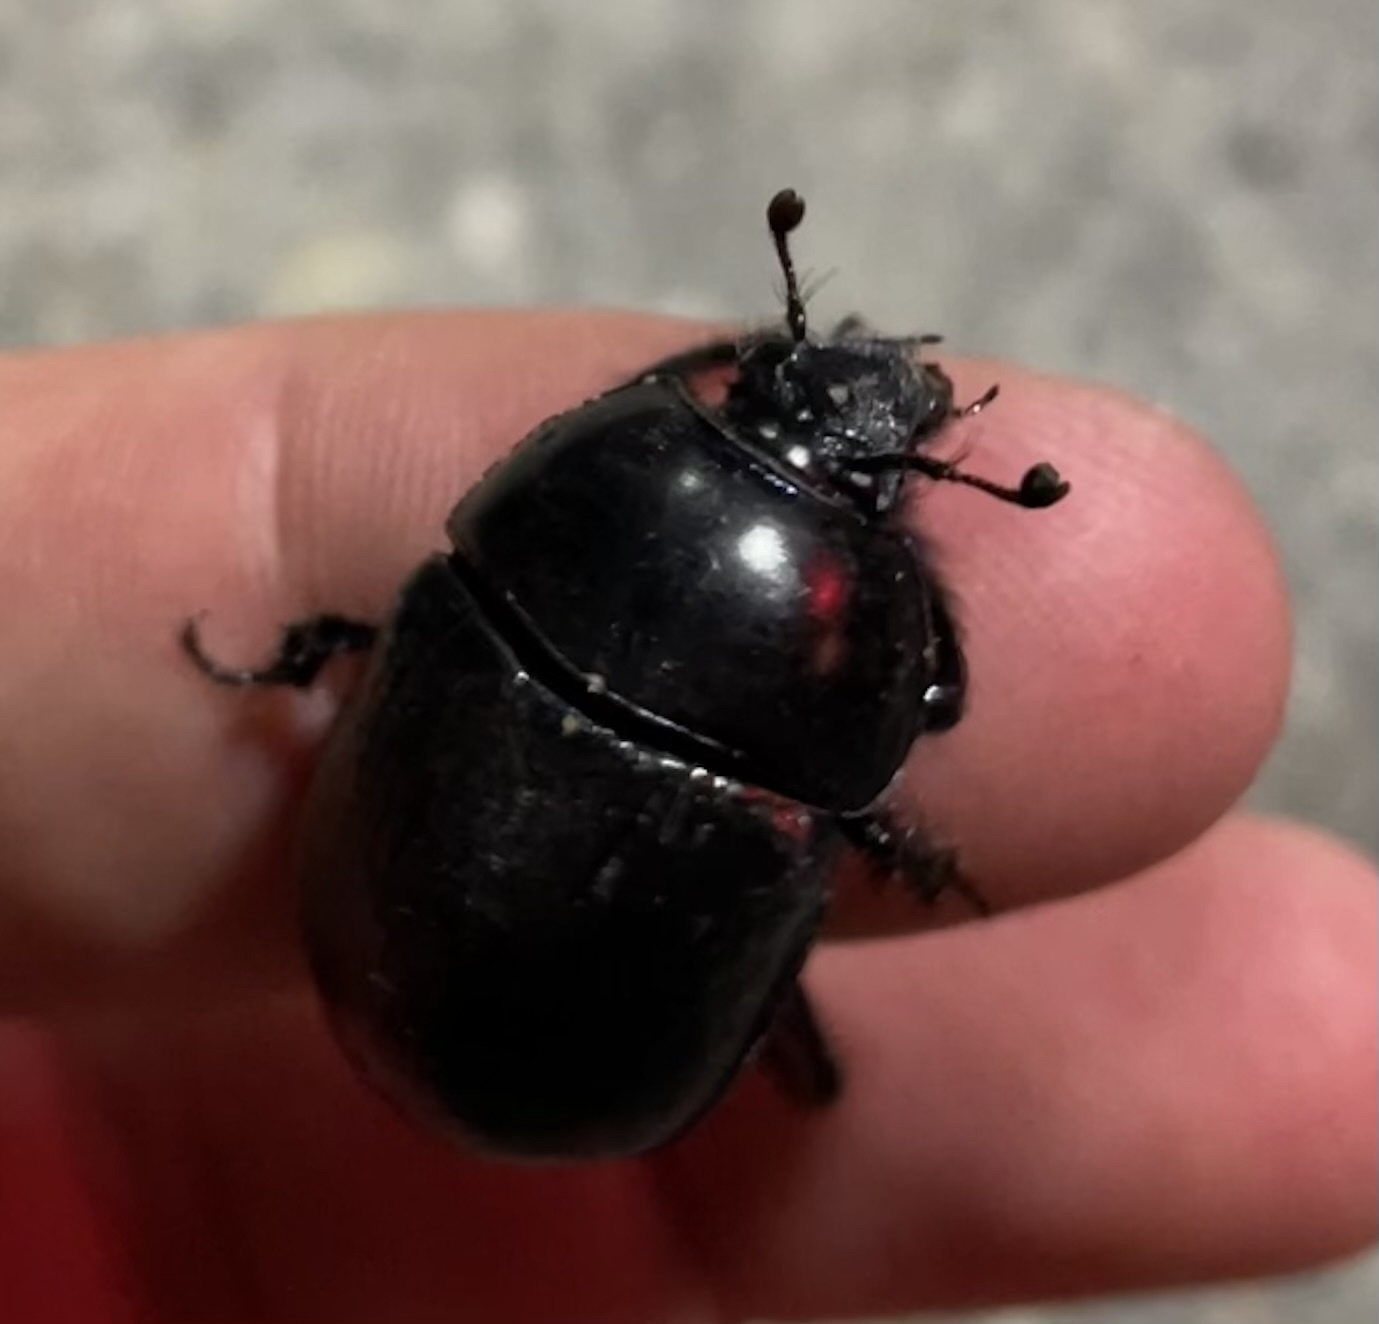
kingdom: Animalia
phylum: Arthropoda
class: Insecta
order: Coleoptera
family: Geotrupidae
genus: Anoplotrupes
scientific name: Anoplotrupes stercorosus
